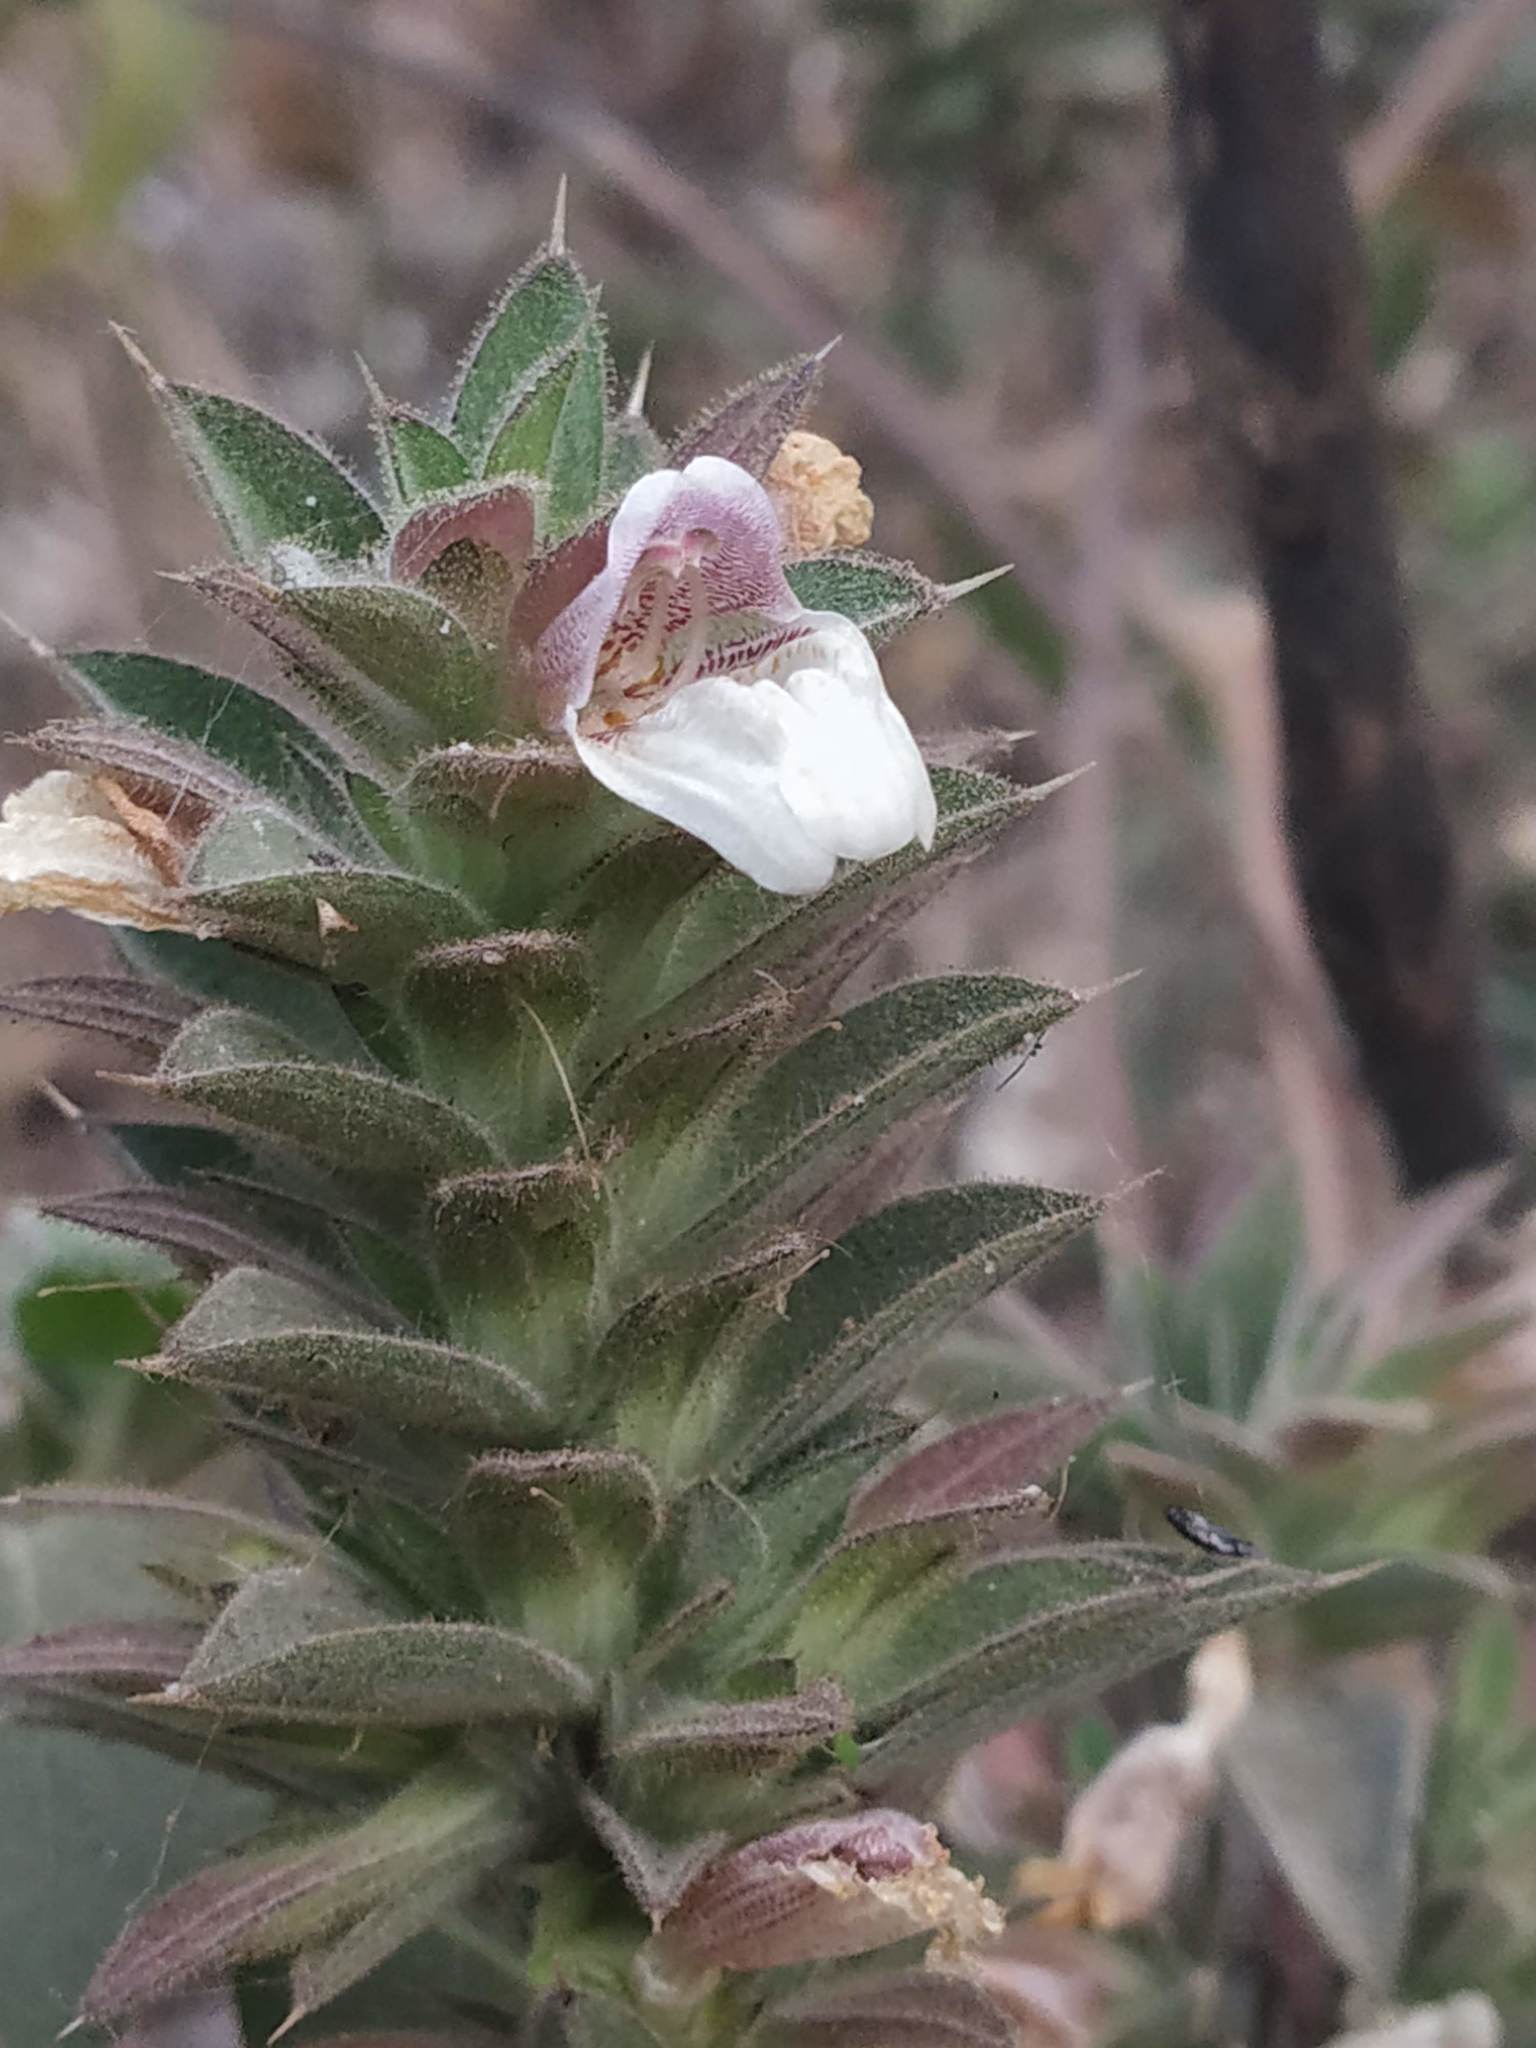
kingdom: Plantae
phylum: Tracheophyta
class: Magnoliopsida
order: Lamiales
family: Acanthaceae
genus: Lepidagathis
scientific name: Lepidagathis cuspidata
